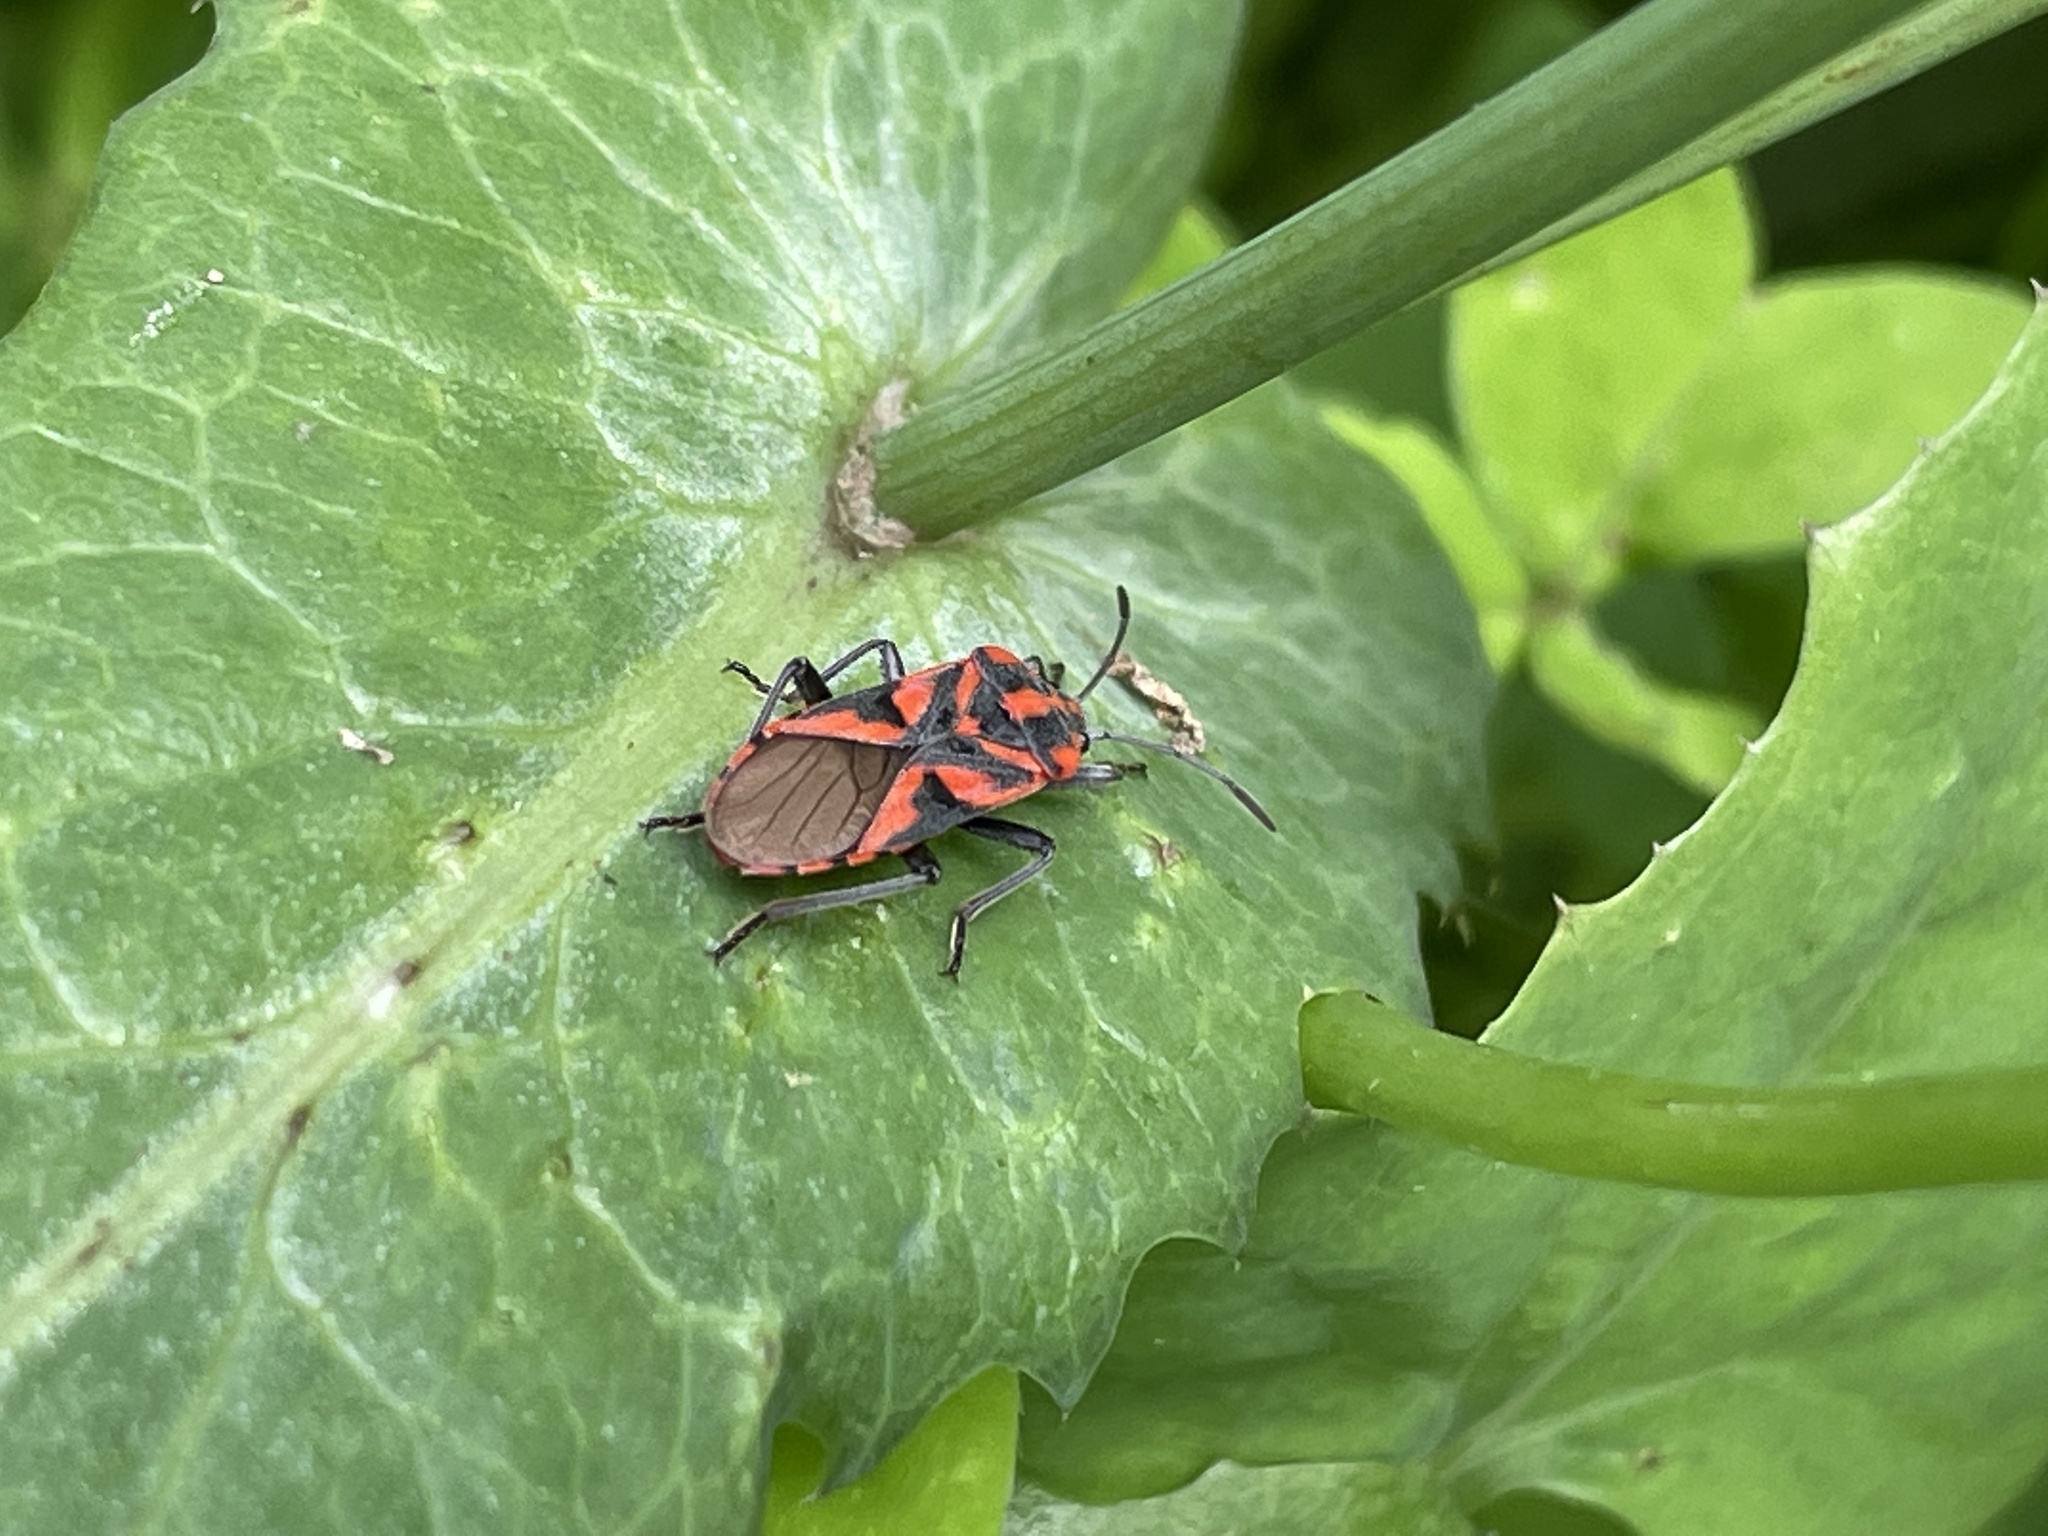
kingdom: Animalia
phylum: Arthropoda
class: Insecta
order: Hemiptera
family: Lygaeidae
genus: Spilostethus
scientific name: Spilostethus furcula
